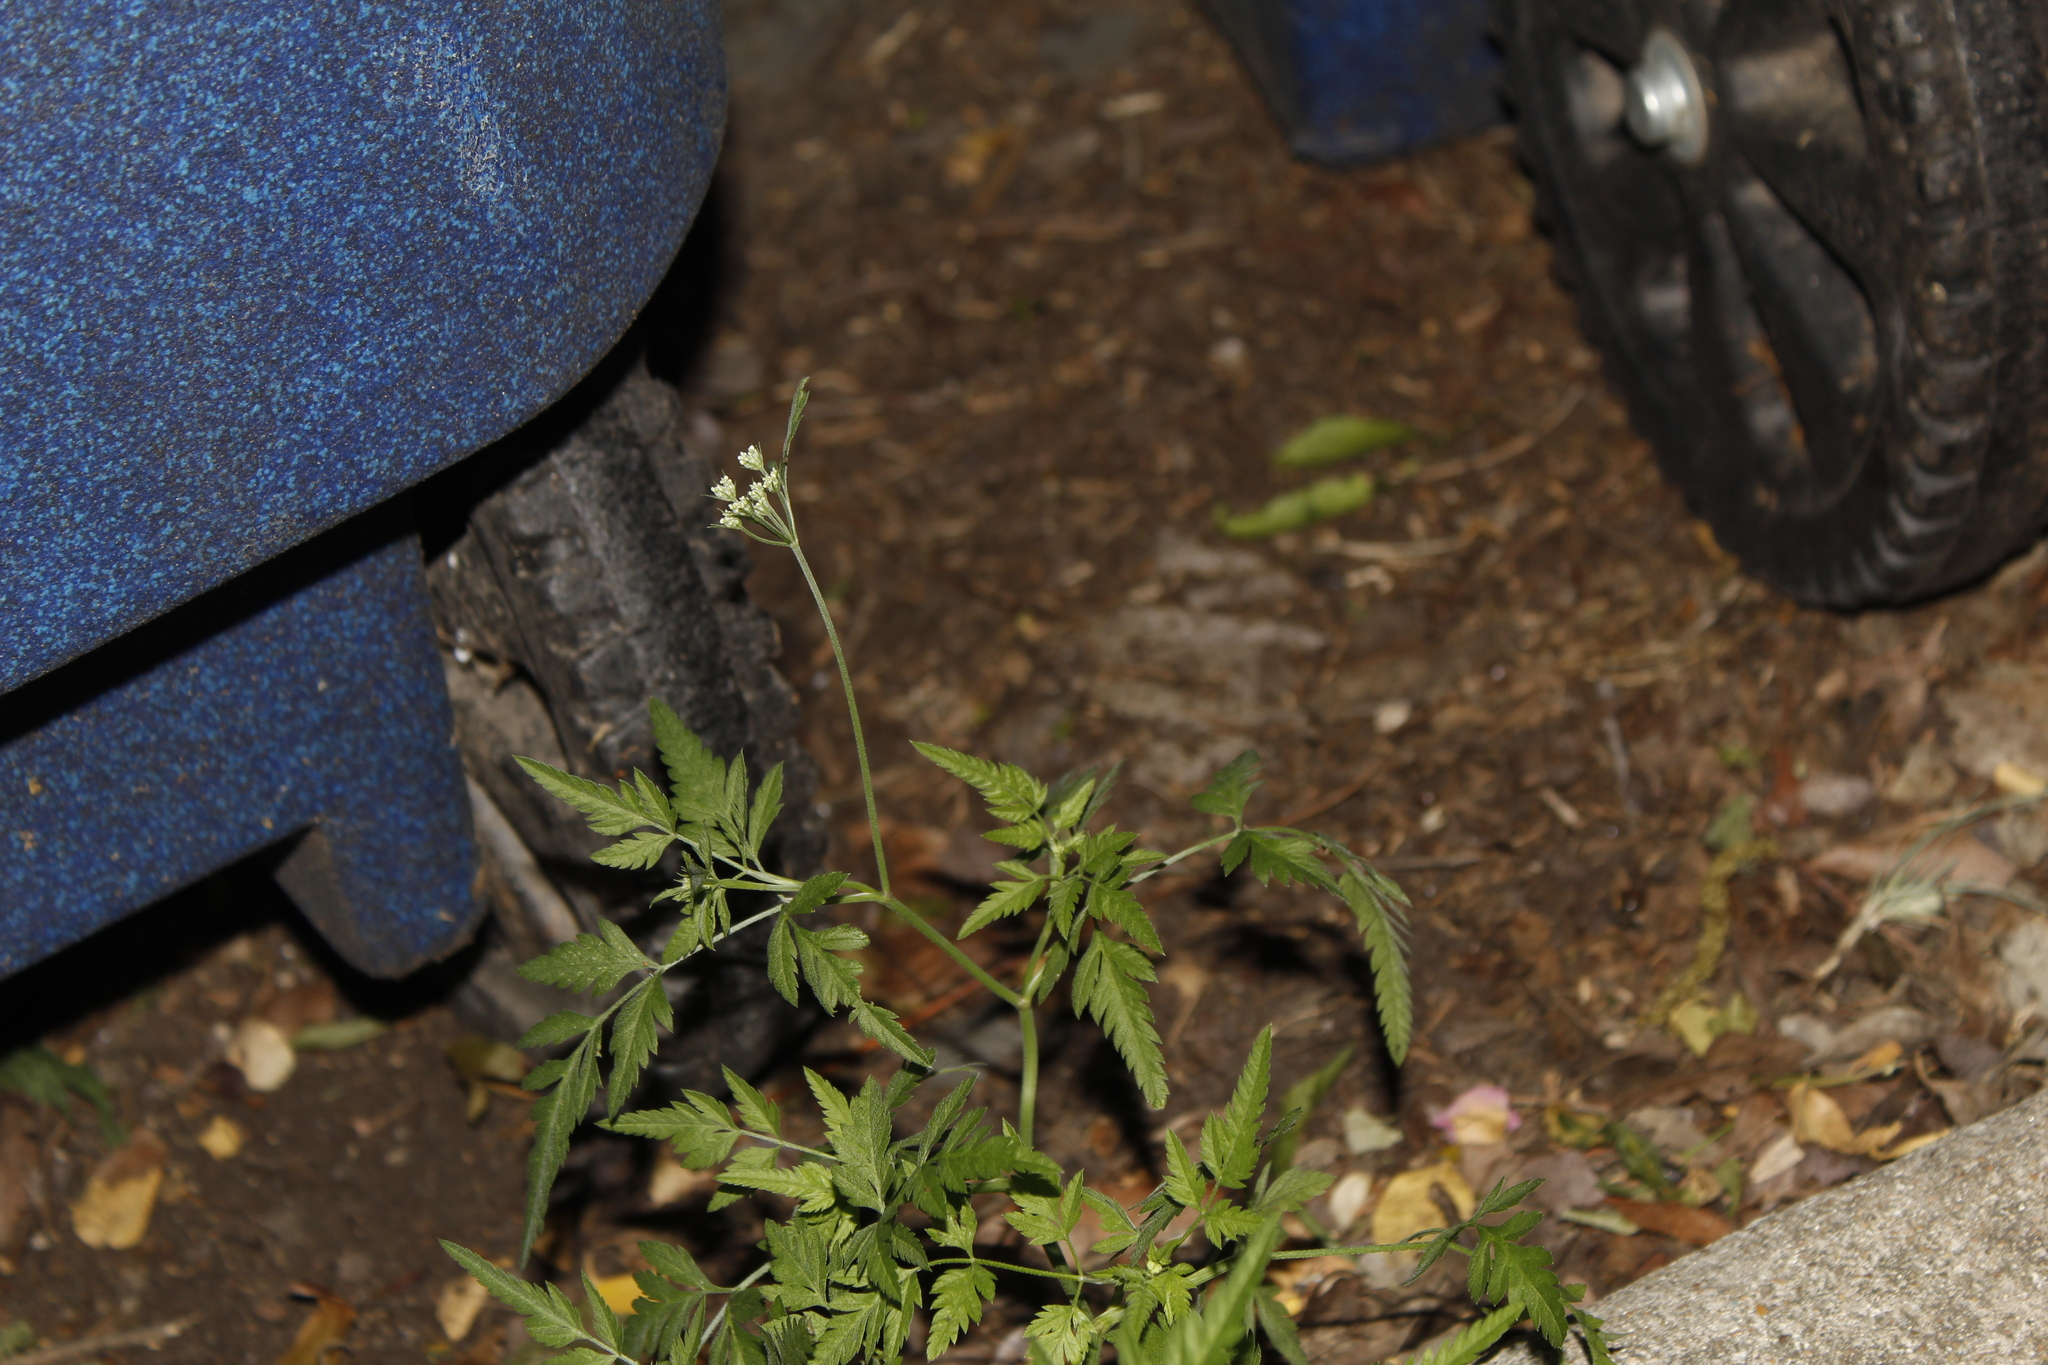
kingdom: Plantae
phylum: Tracheophyta
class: Magnoliopsida
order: Apiales
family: Apiaceae
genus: Torilis
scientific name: Torilis arvensis
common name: Spreading hedge-parsley
